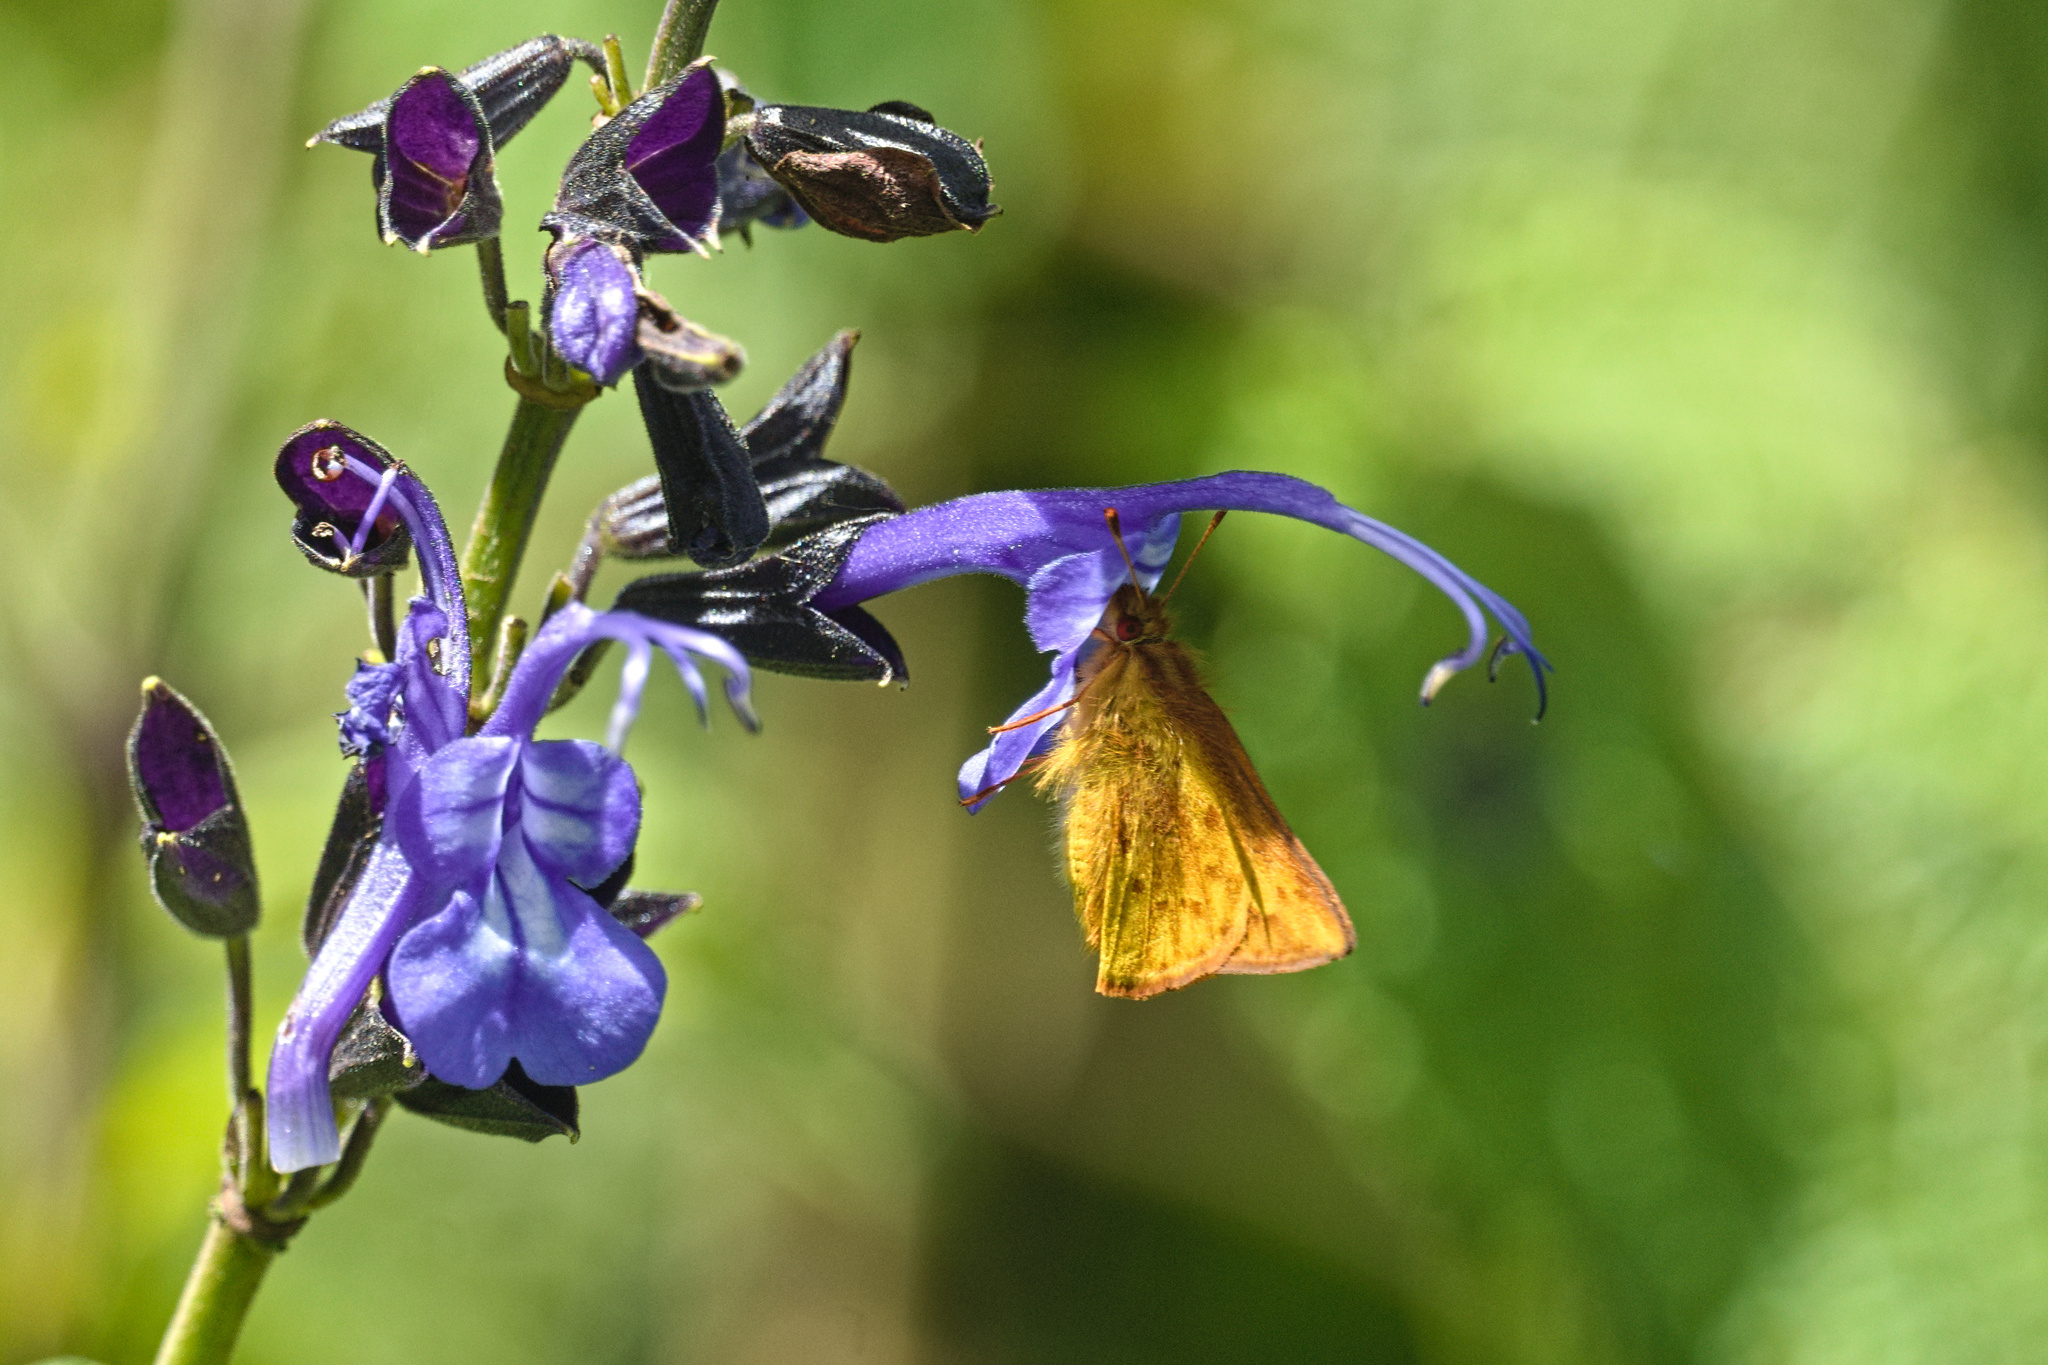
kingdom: Plantae
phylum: Tracheophyta
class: Magnoliopsida
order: Lamiales
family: Lamiaceae
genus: Salvia
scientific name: Salvia pichinchensis
